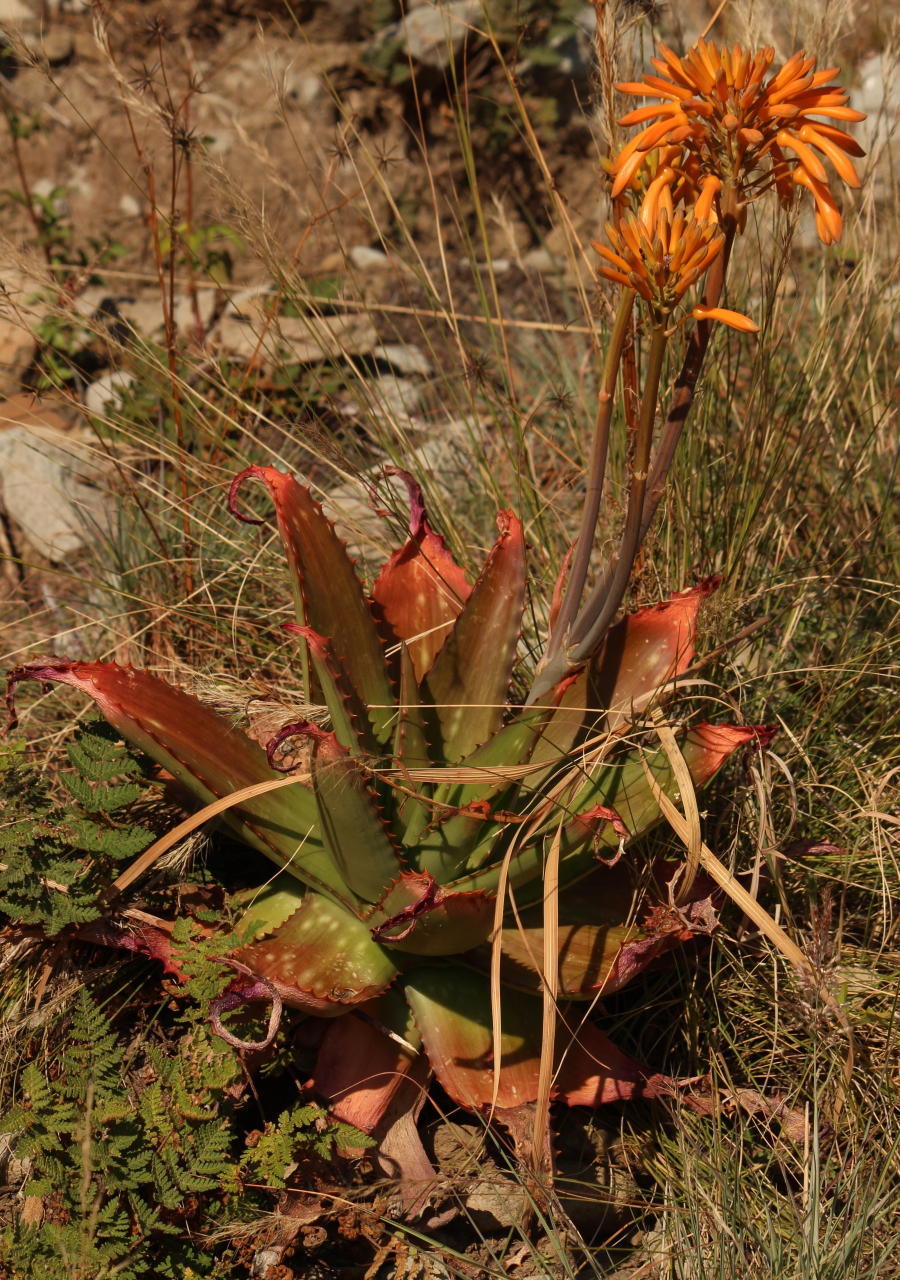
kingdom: Plantae
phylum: Tracheophyta
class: Liliopsida
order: Asparagales
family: Asphodelaceae
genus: Aloe
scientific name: Aloe maculata
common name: Broadleaf aloe
